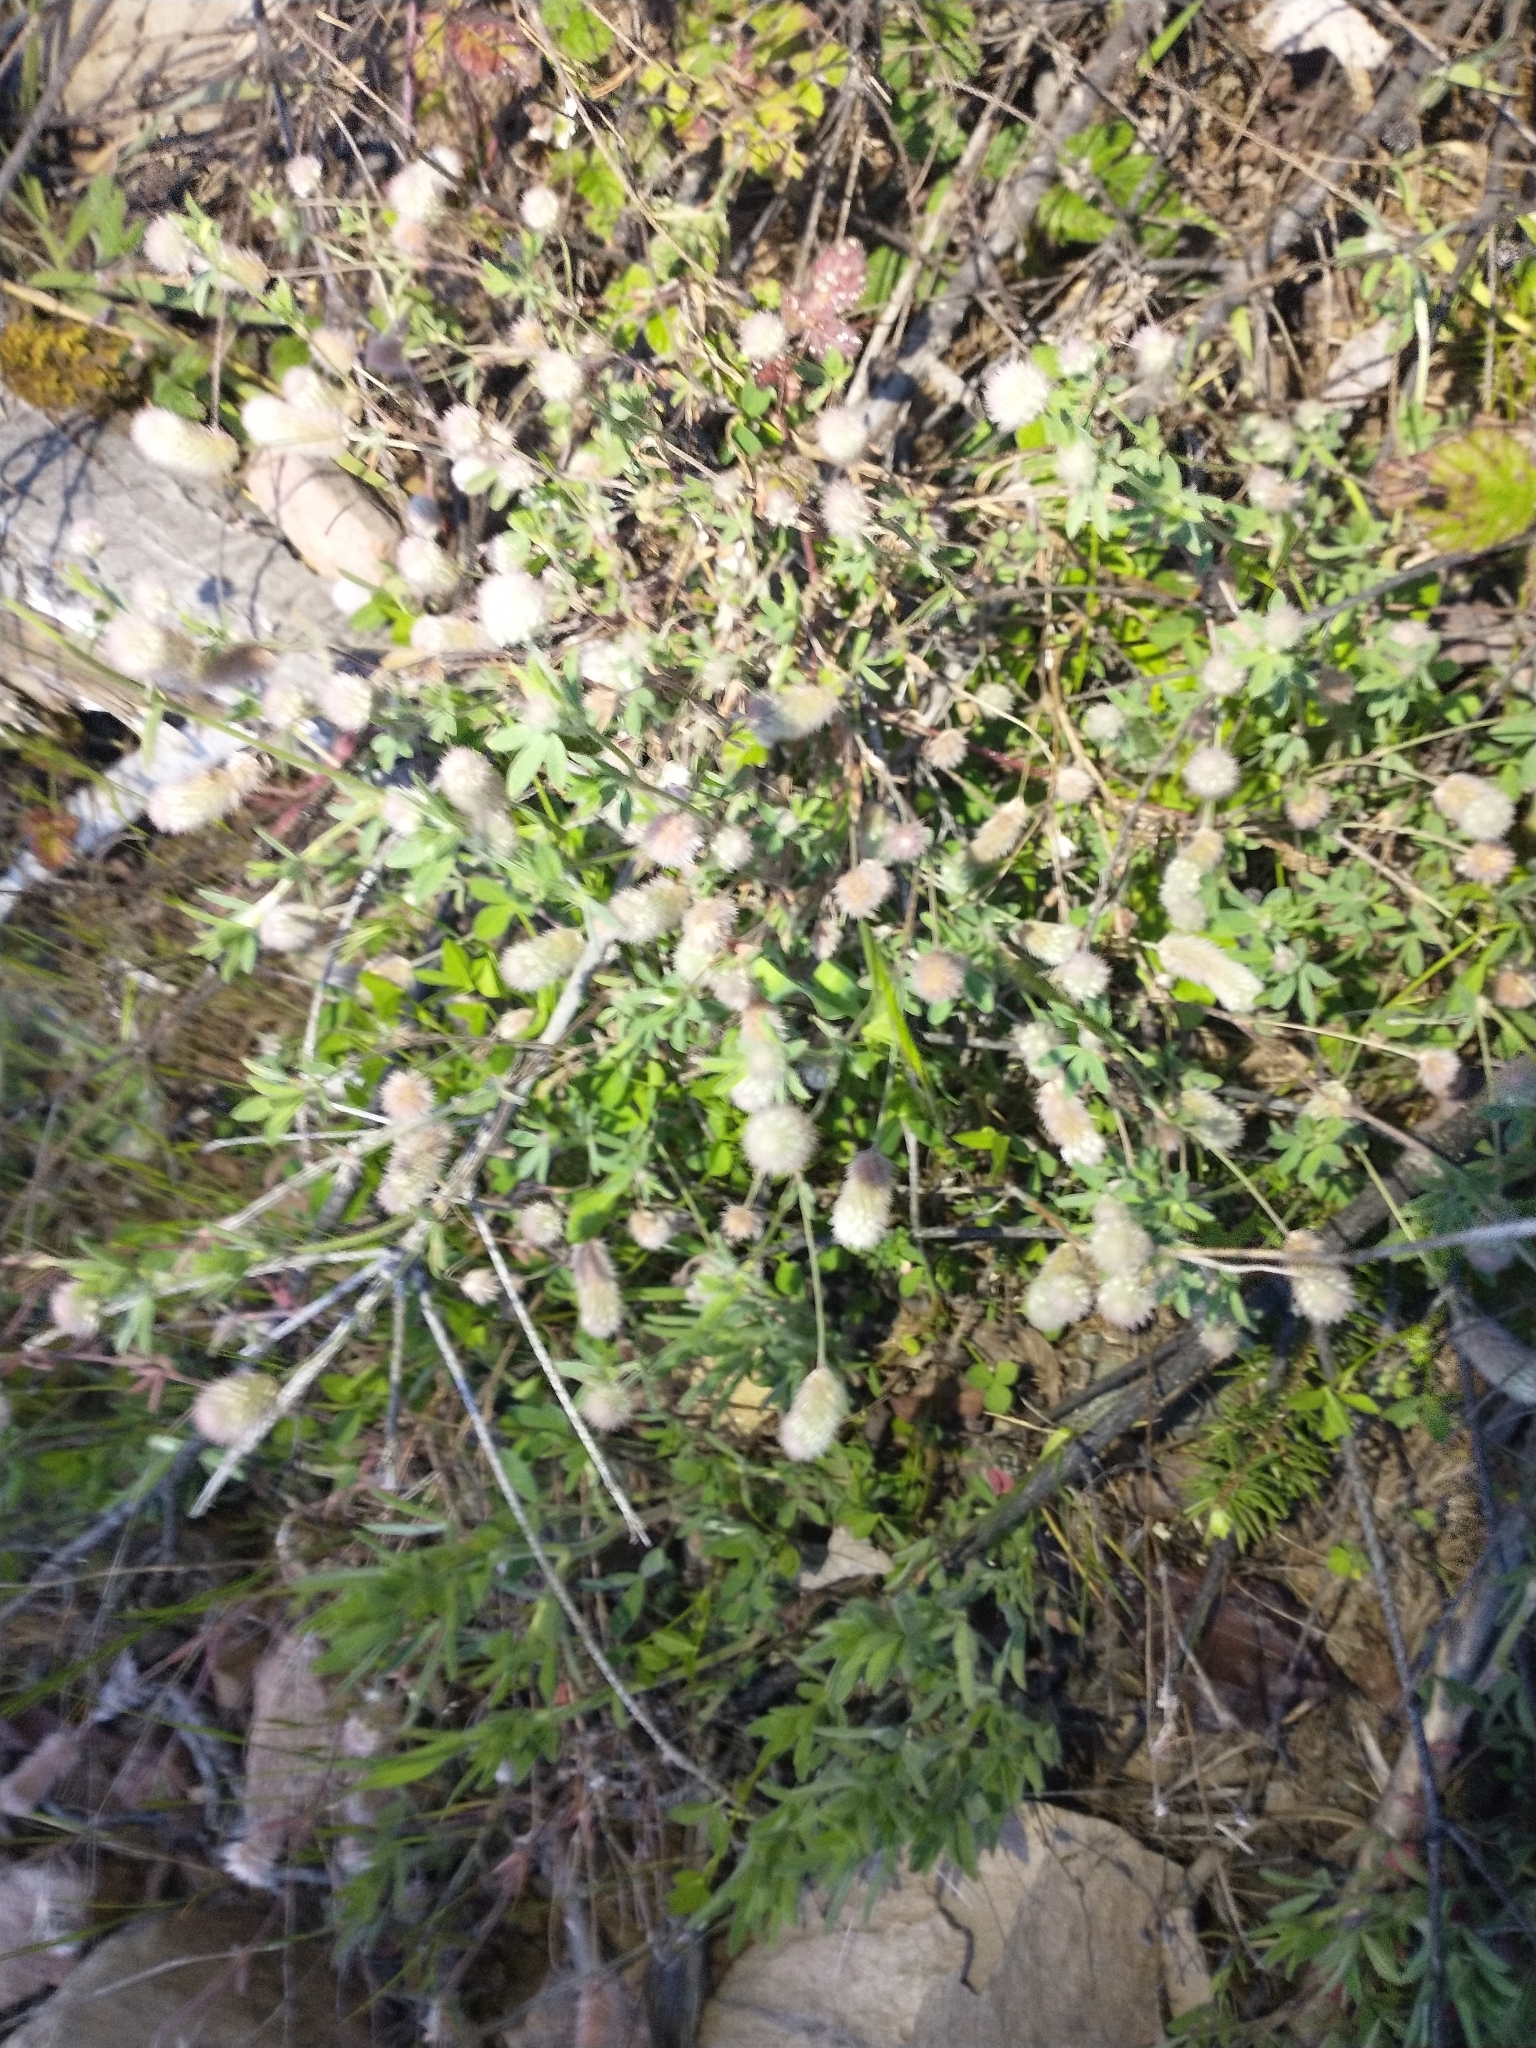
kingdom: Plantae
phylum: Tracheophyta
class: Magnoliopsida
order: Fabales
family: Fabaceae
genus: Trifolium
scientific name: Trifolium arvense
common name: Hare's-foot clover
